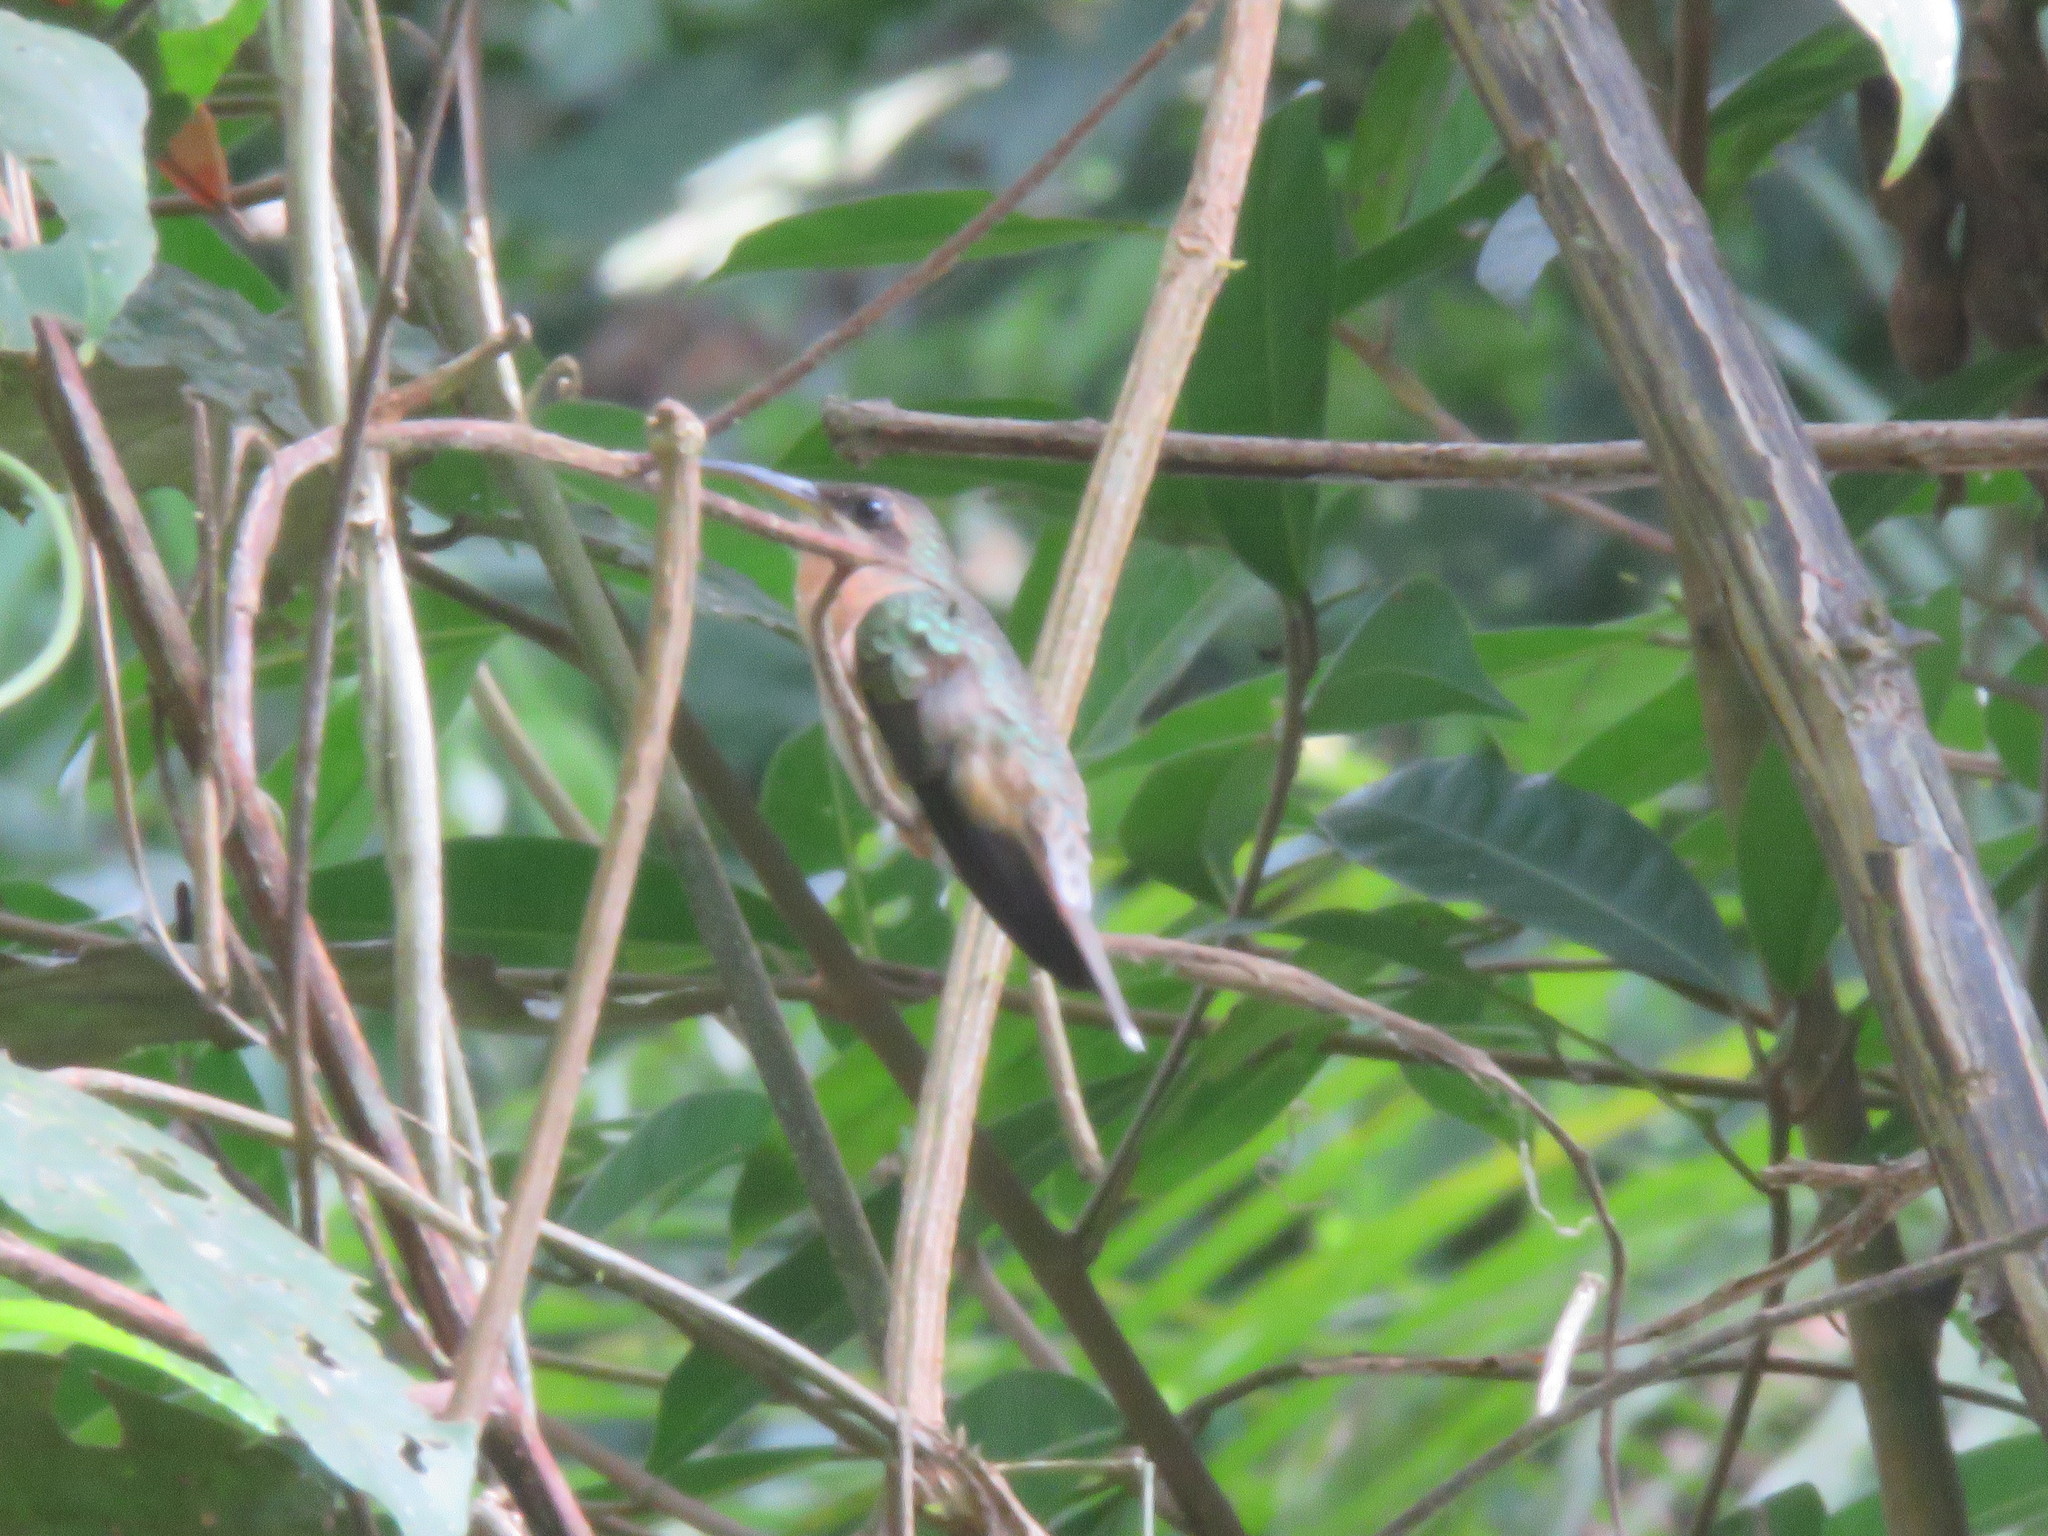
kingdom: Animalia
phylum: Chordata
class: Aves
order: Apodiformes
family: Trochilidae
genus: Glaucis
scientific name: Glaucis hirsutus
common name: Rufous-breasted hermit
